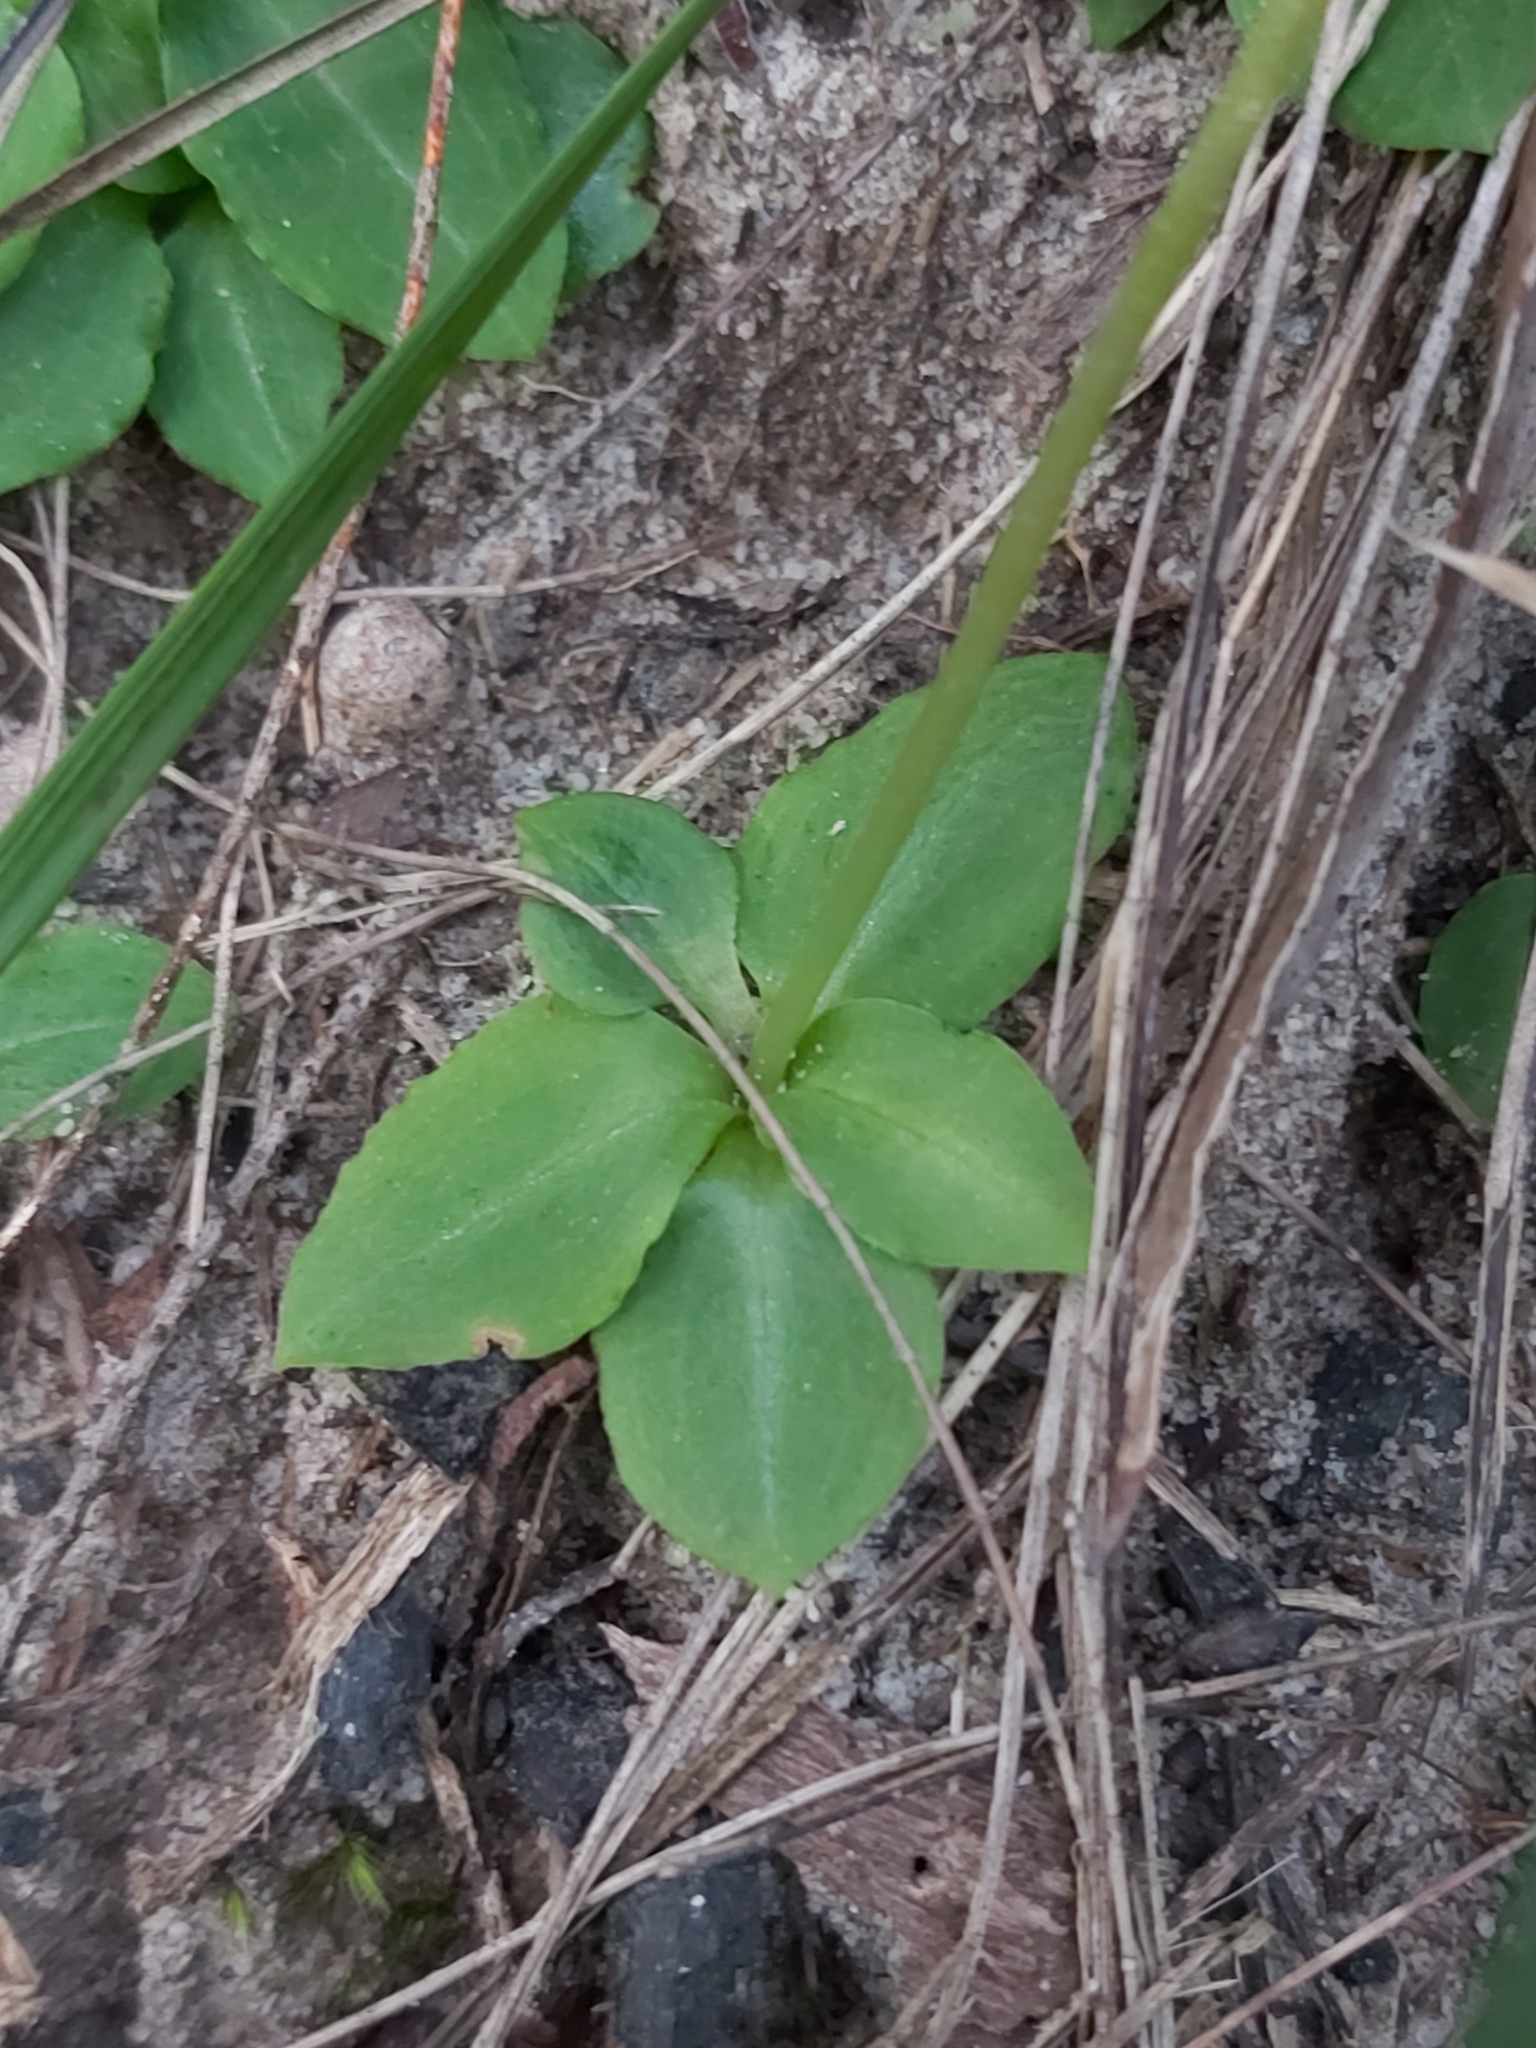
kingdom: Plantae
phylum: Tracheophyta
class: Liliopsida
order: Asparagales
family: Orchidaceae
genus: Pterostylis
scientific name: Pterostylis acuminata
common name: Pointed greenhood
